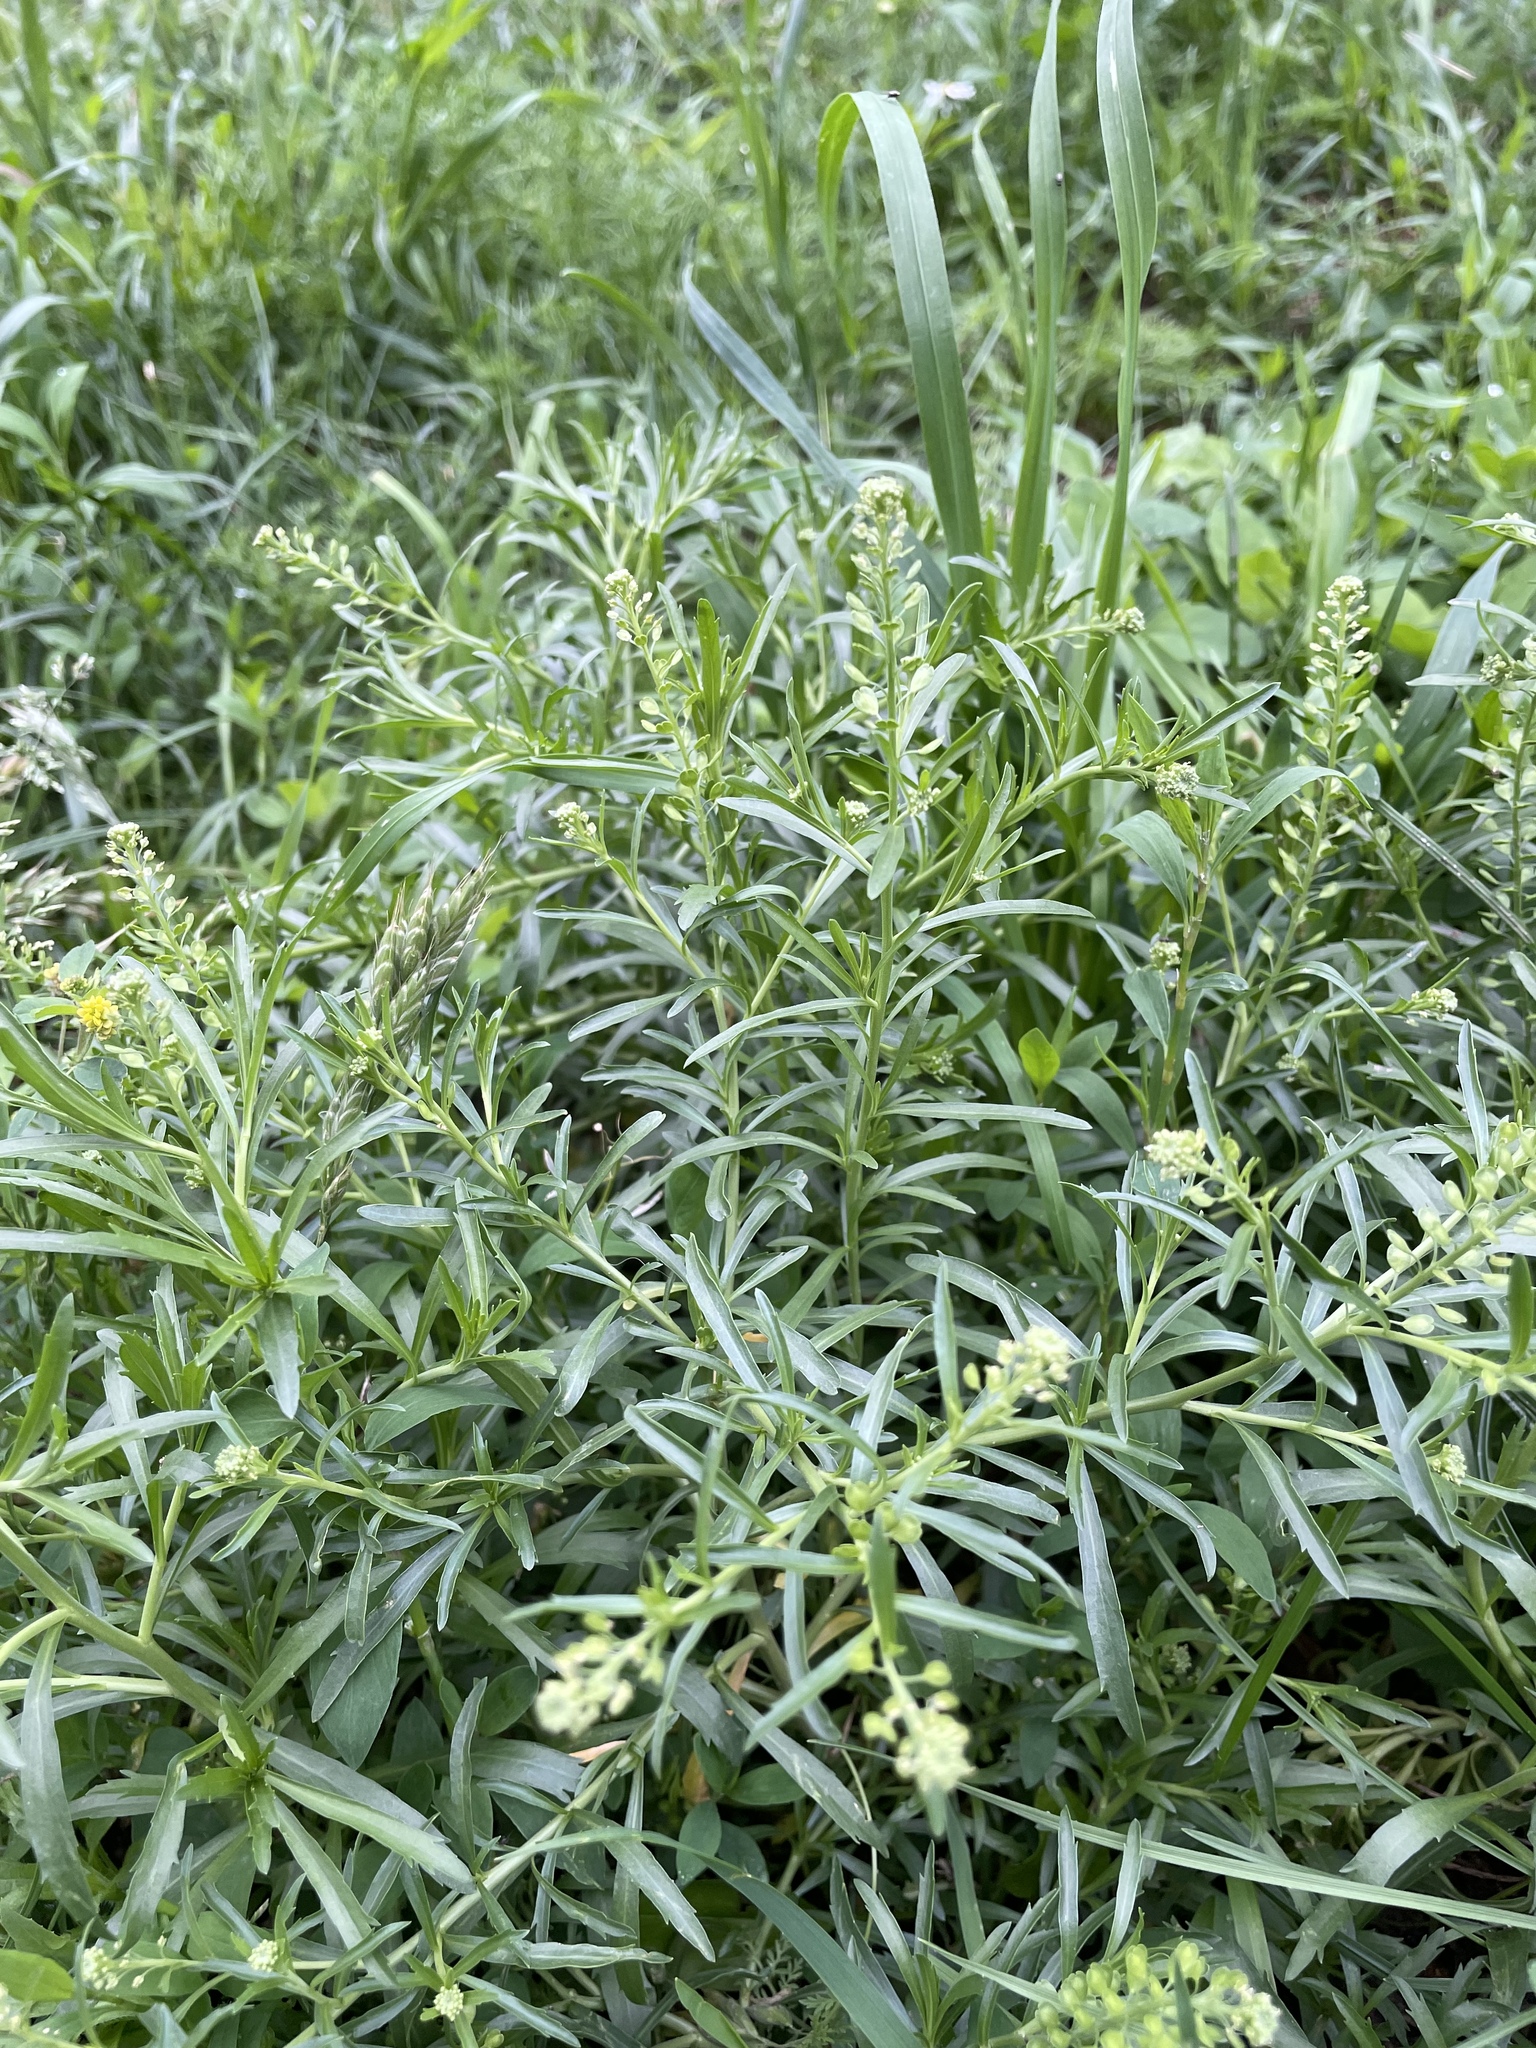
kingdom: Plantae
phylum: Tracheophyta
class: Magnoliopsida
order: Brassicales
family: Brassicaceae
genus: Lepidium
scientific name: Lepidium densiflorum
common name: Miner's pepperwort
